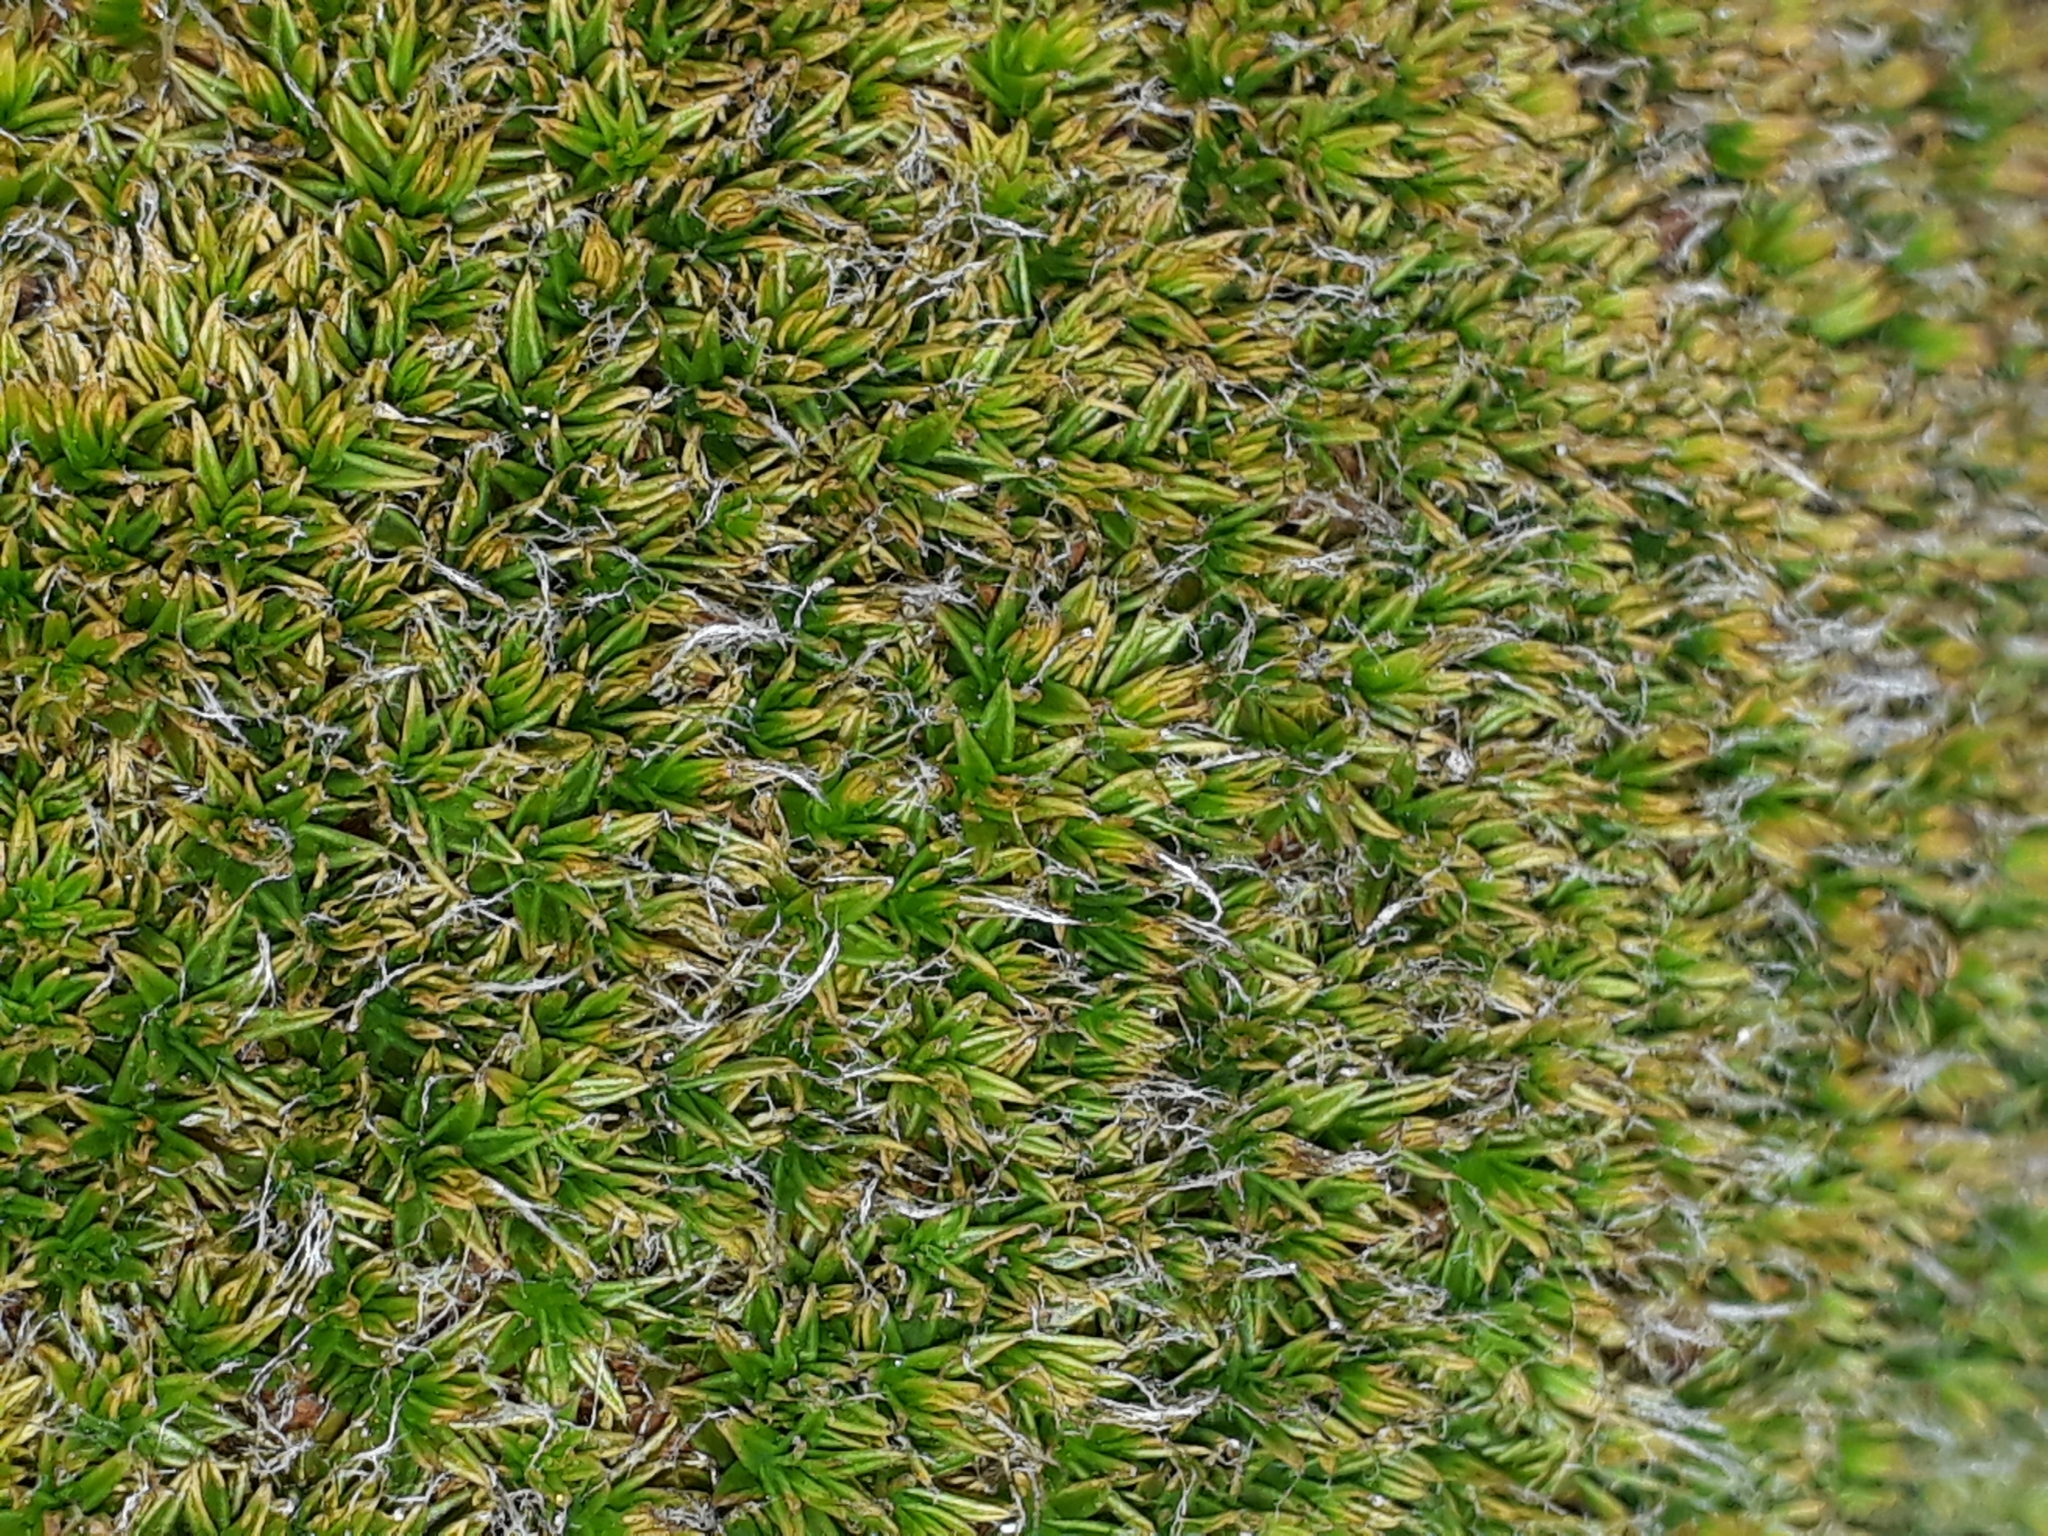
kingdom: Plantae
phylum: Bryophyta
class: Bryopsida
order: Bryales
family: Leptostomataceae
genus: Leptostomum
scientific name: Leptostomum macrocarpon
